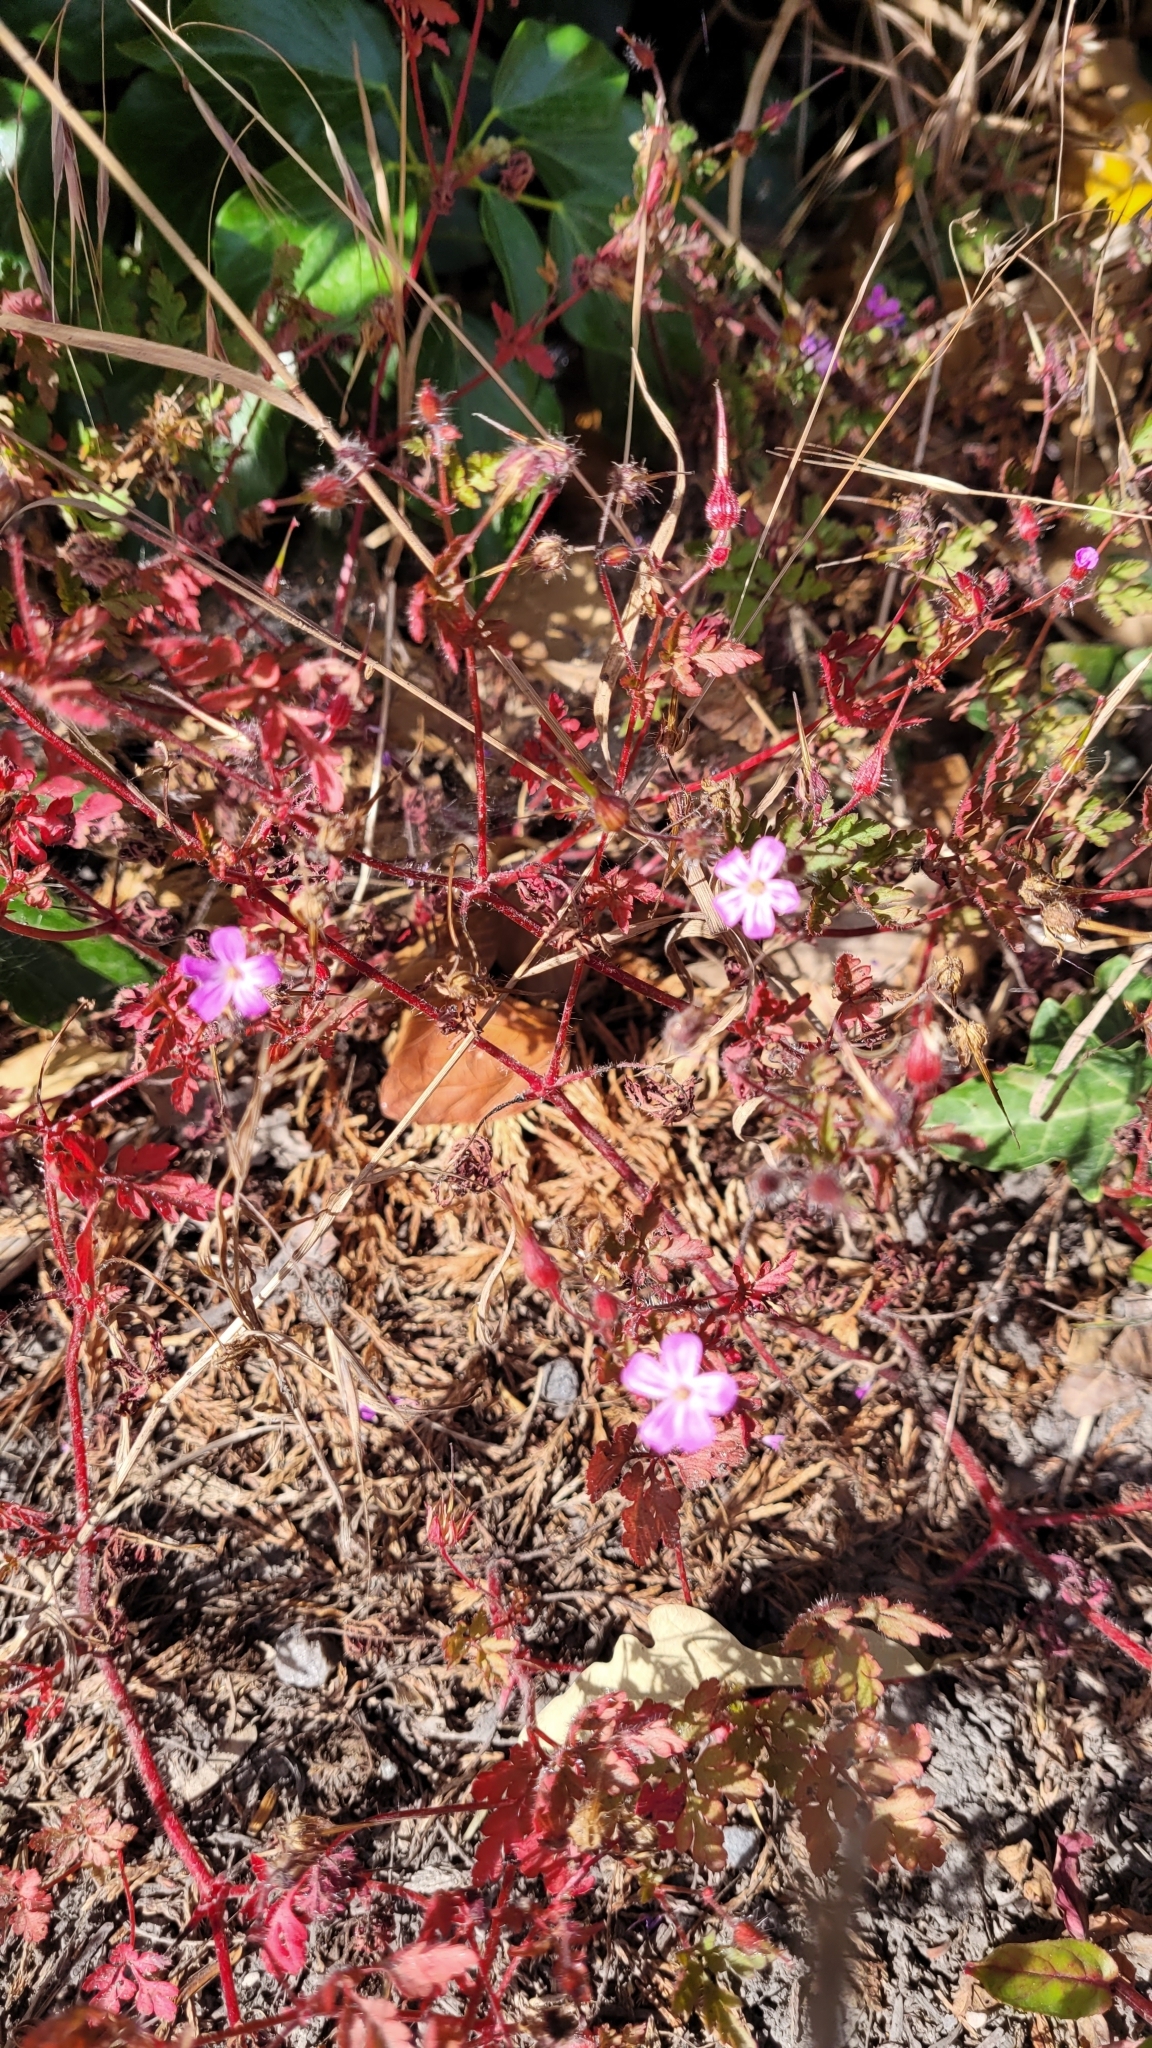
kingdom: Plantae
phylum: Tracheophyta
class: Magnoliopsida
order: Geraniales
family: Geraniaceae
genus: Geranium
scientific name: Geranium robertianum
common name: Herb-robert
